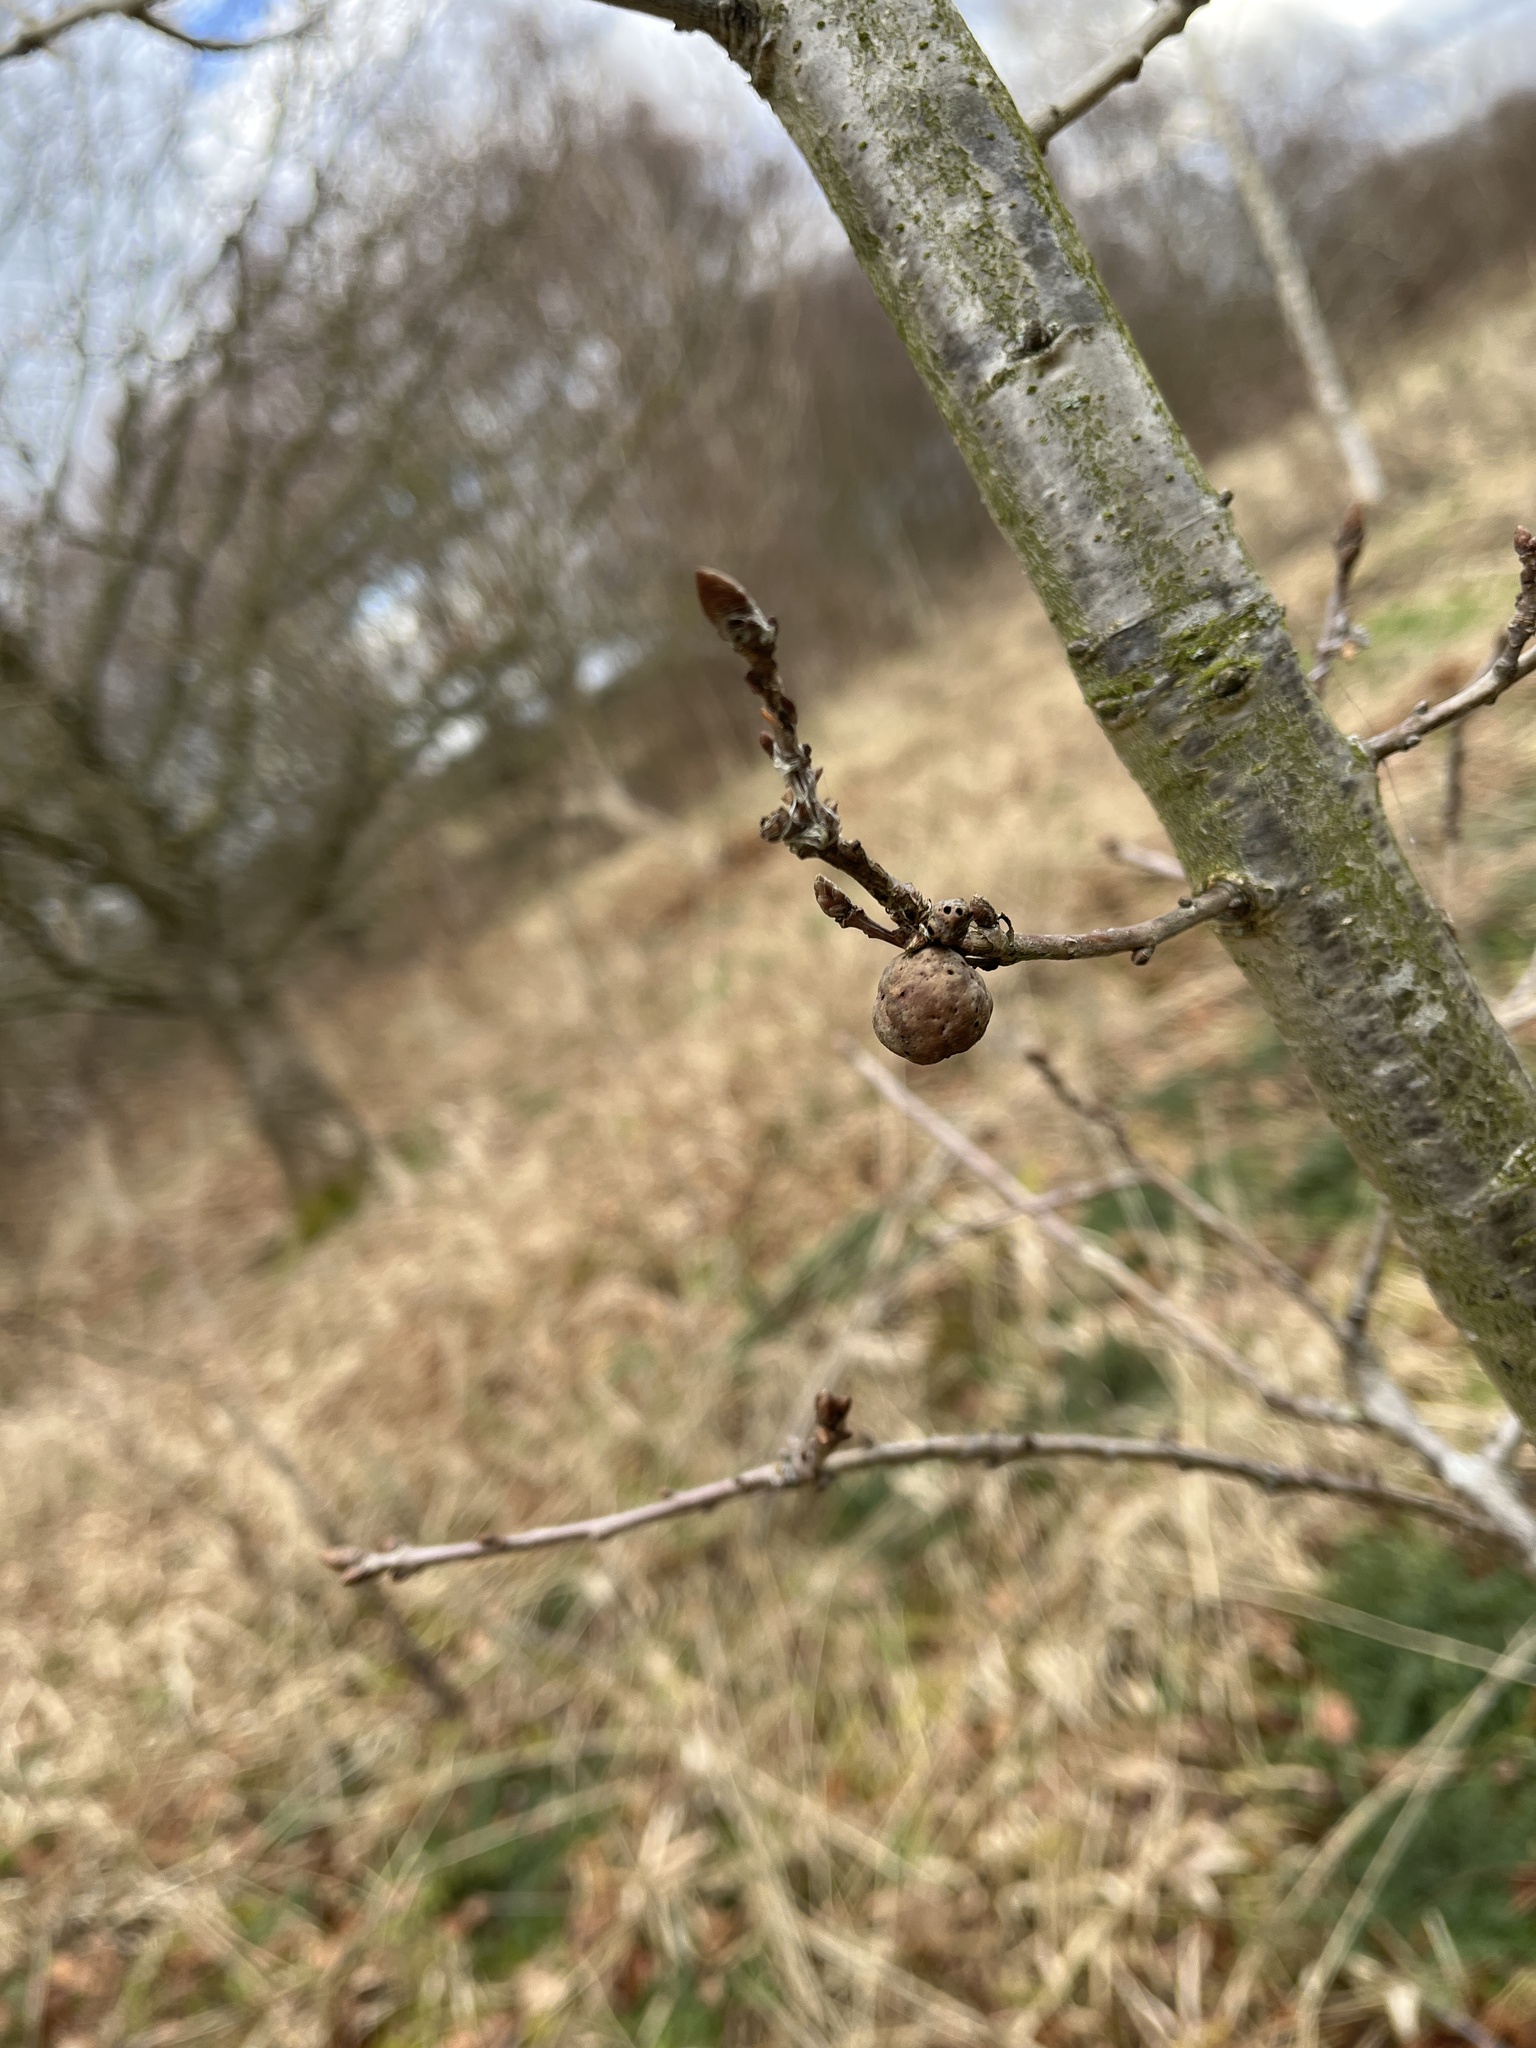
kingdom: Animalia
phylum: Arthropoda
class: Insecta
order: Hymenoptera
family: Cynipidae
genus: Andricus
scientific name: Andricus lignicolus
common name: Cola-nut gall
